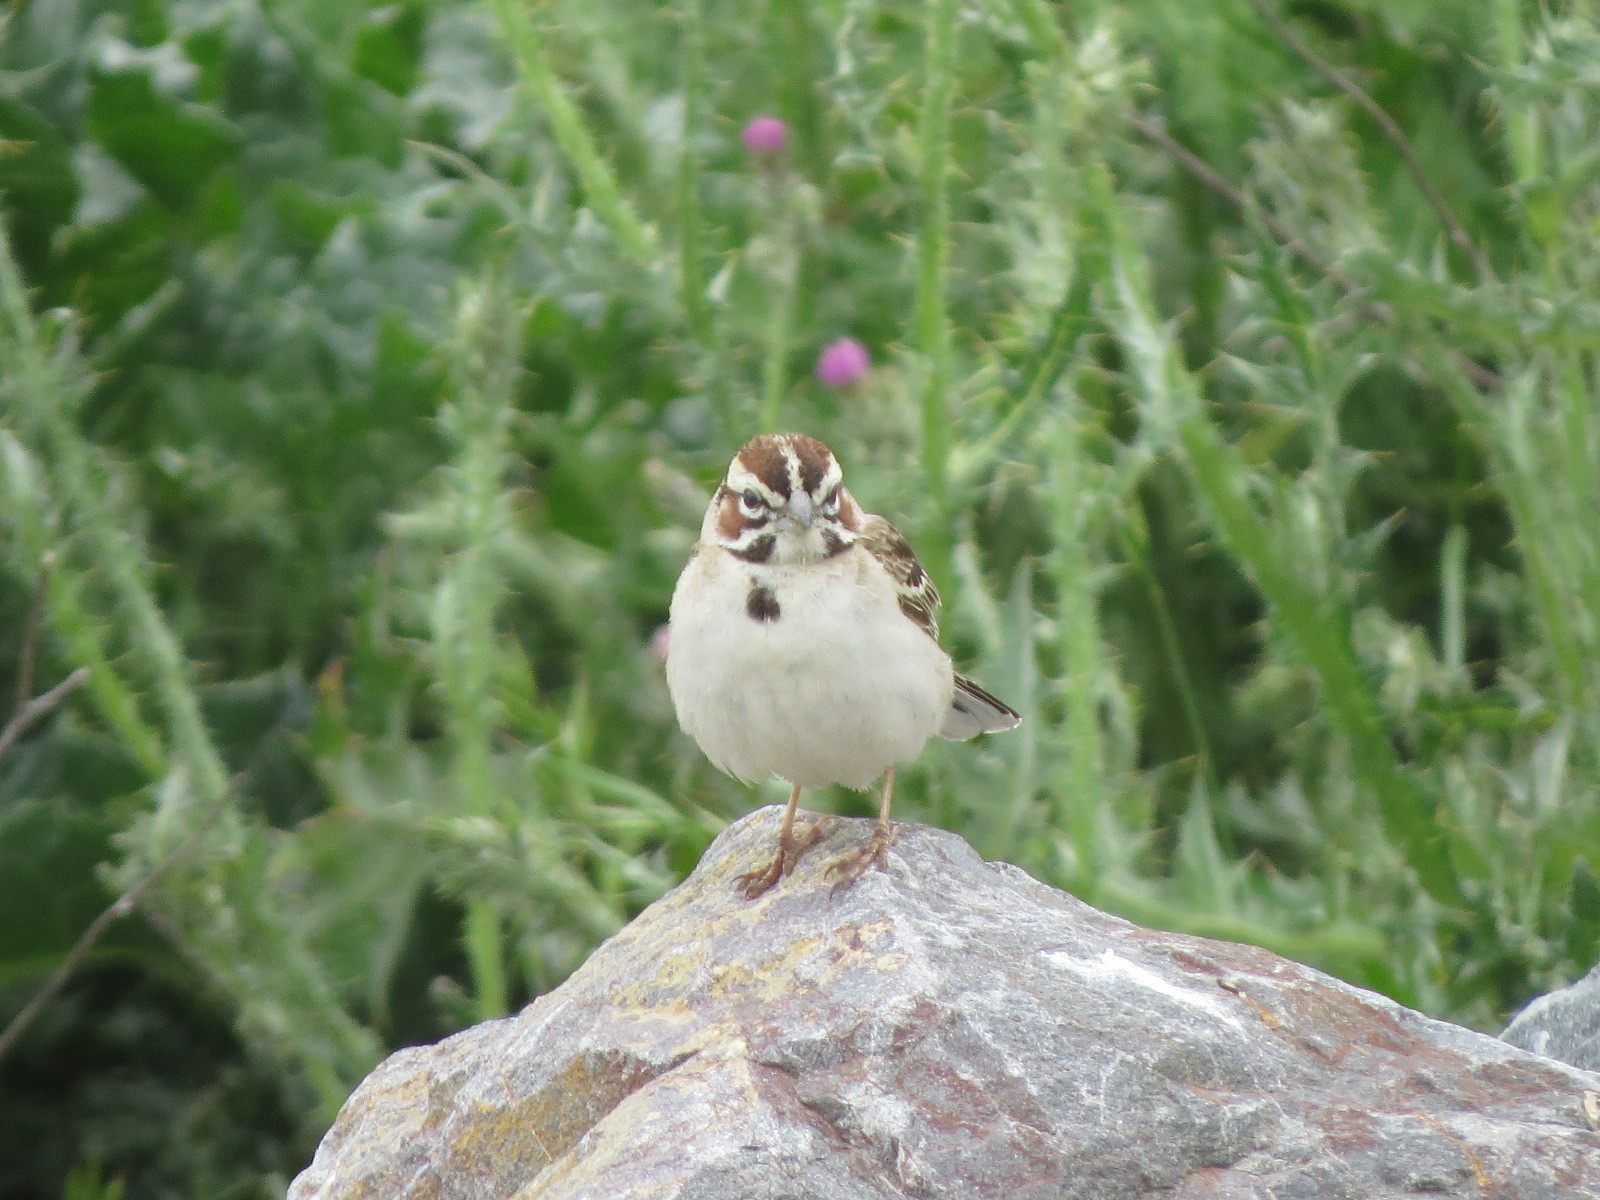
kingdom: Animalia
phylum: Chordata
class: Aves
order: Passeriformes
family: Passerellidae
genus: Chondestes
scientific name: Chondestes grammacus
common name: Lark sparrow
